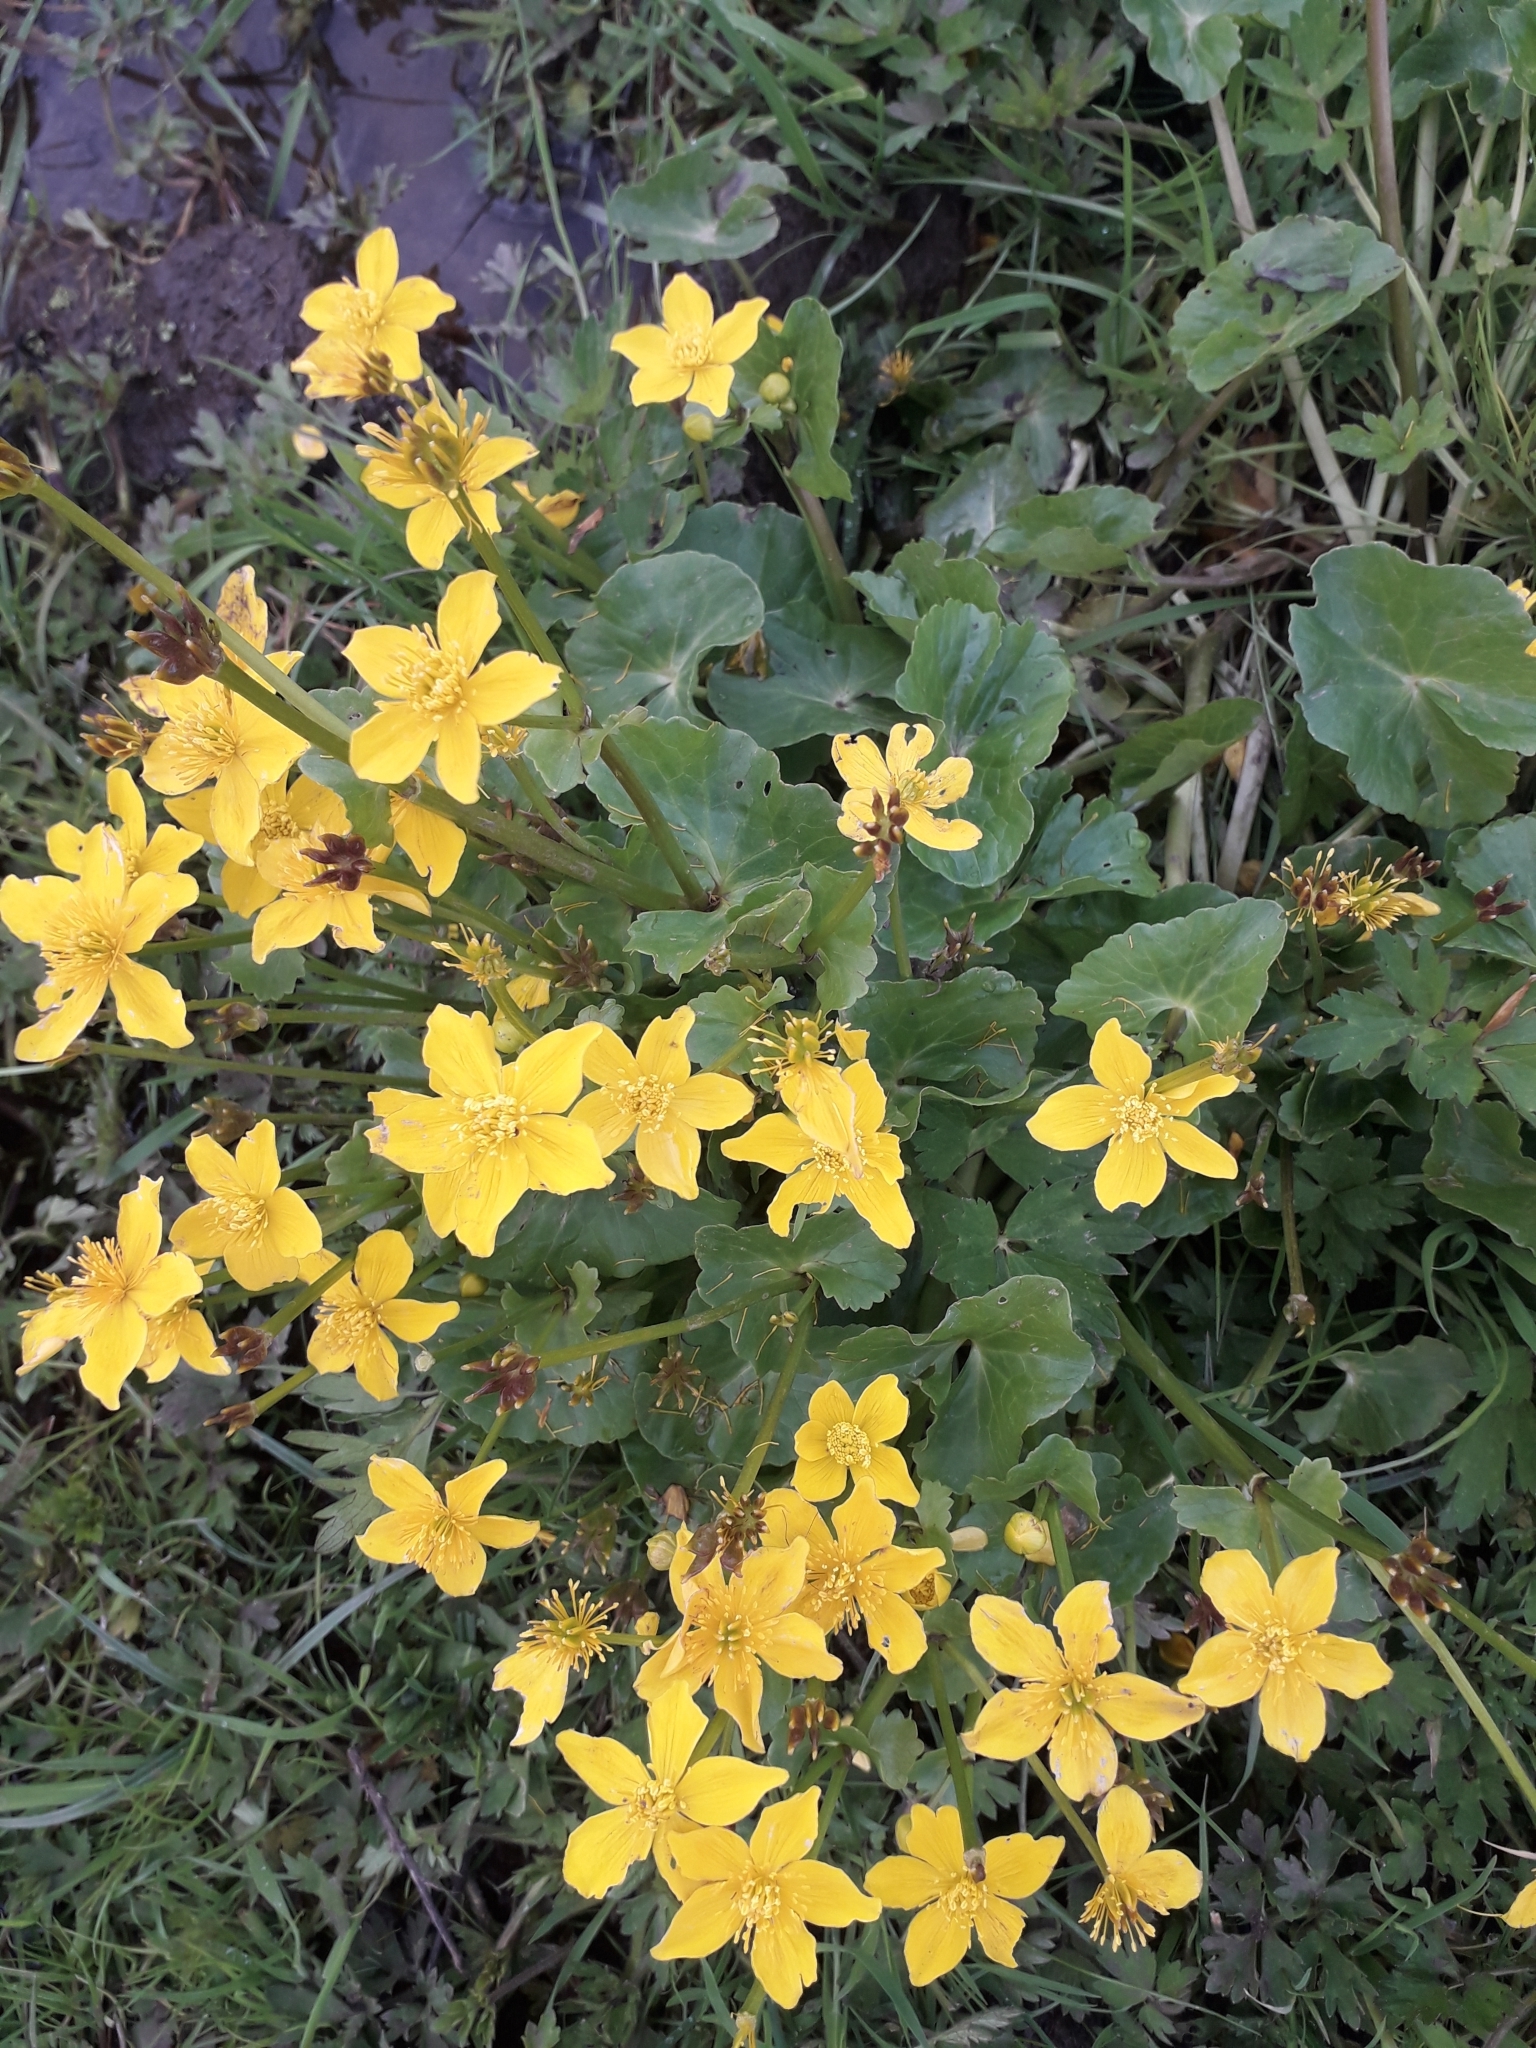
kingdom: Plantae
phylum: Tracheophyta
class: Magnoliopsida
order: Ranunculales
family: Ranunculaceae
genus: Caltha
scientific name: Caltha palustris
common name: Marsh marigold
